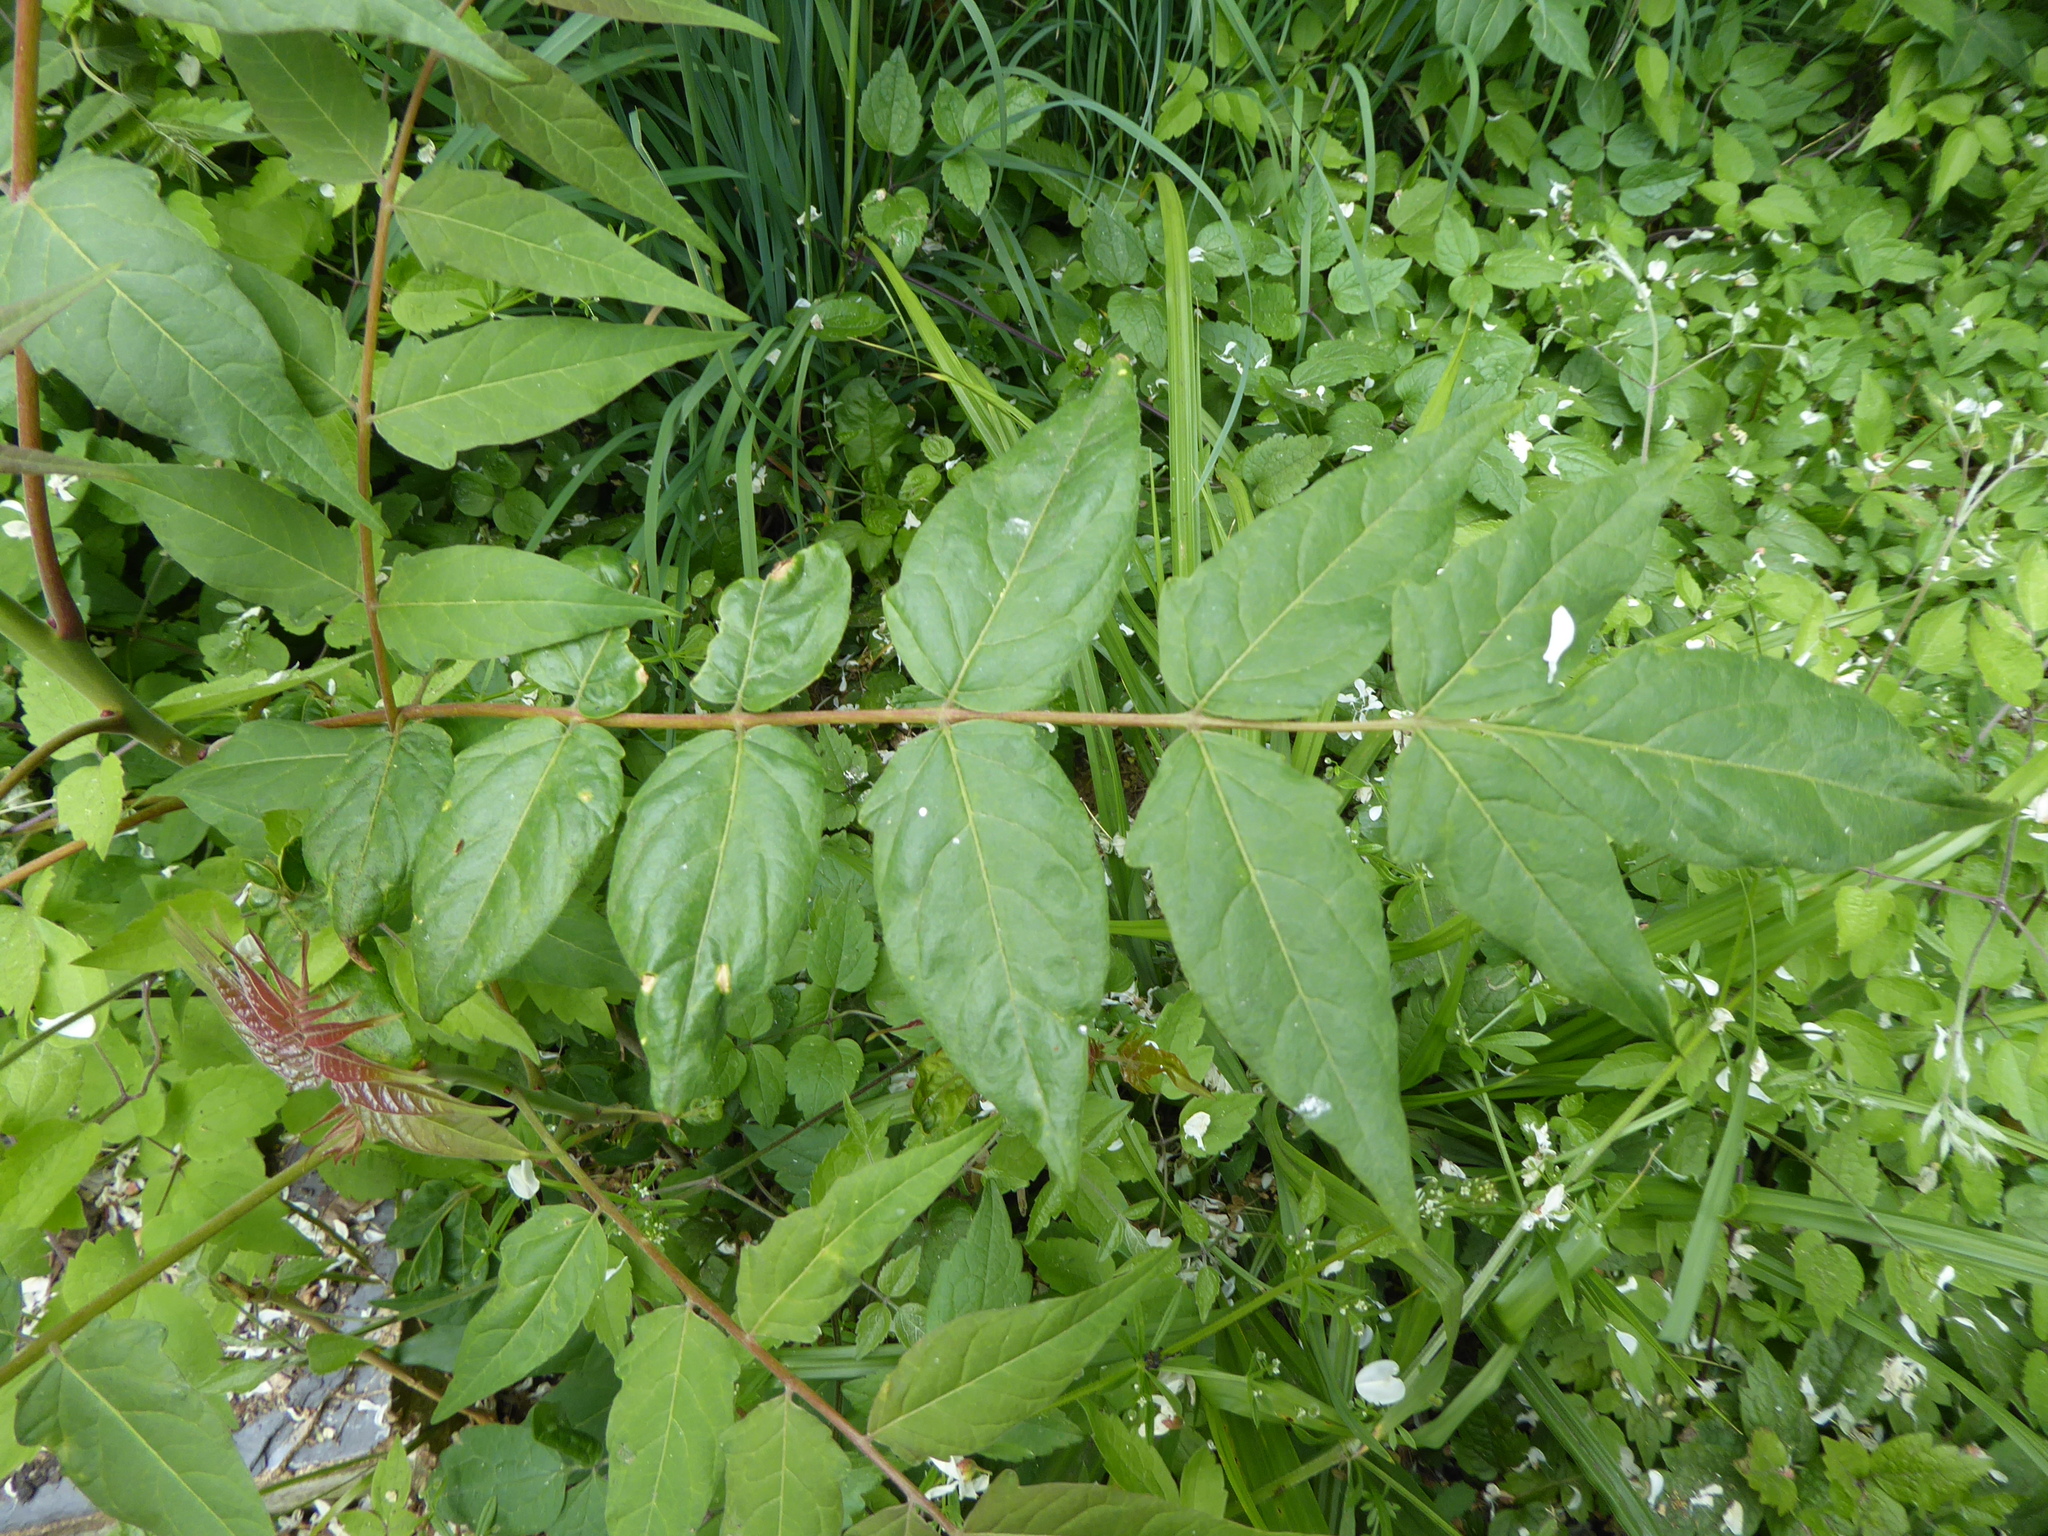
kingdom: Plantae
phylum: Tracheophyta
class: Magnoliopsida
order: Sapindales
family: Simaroubaceae
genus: Ailanthus
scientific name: Ailanthus altissima
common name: Tree-of-heaven
